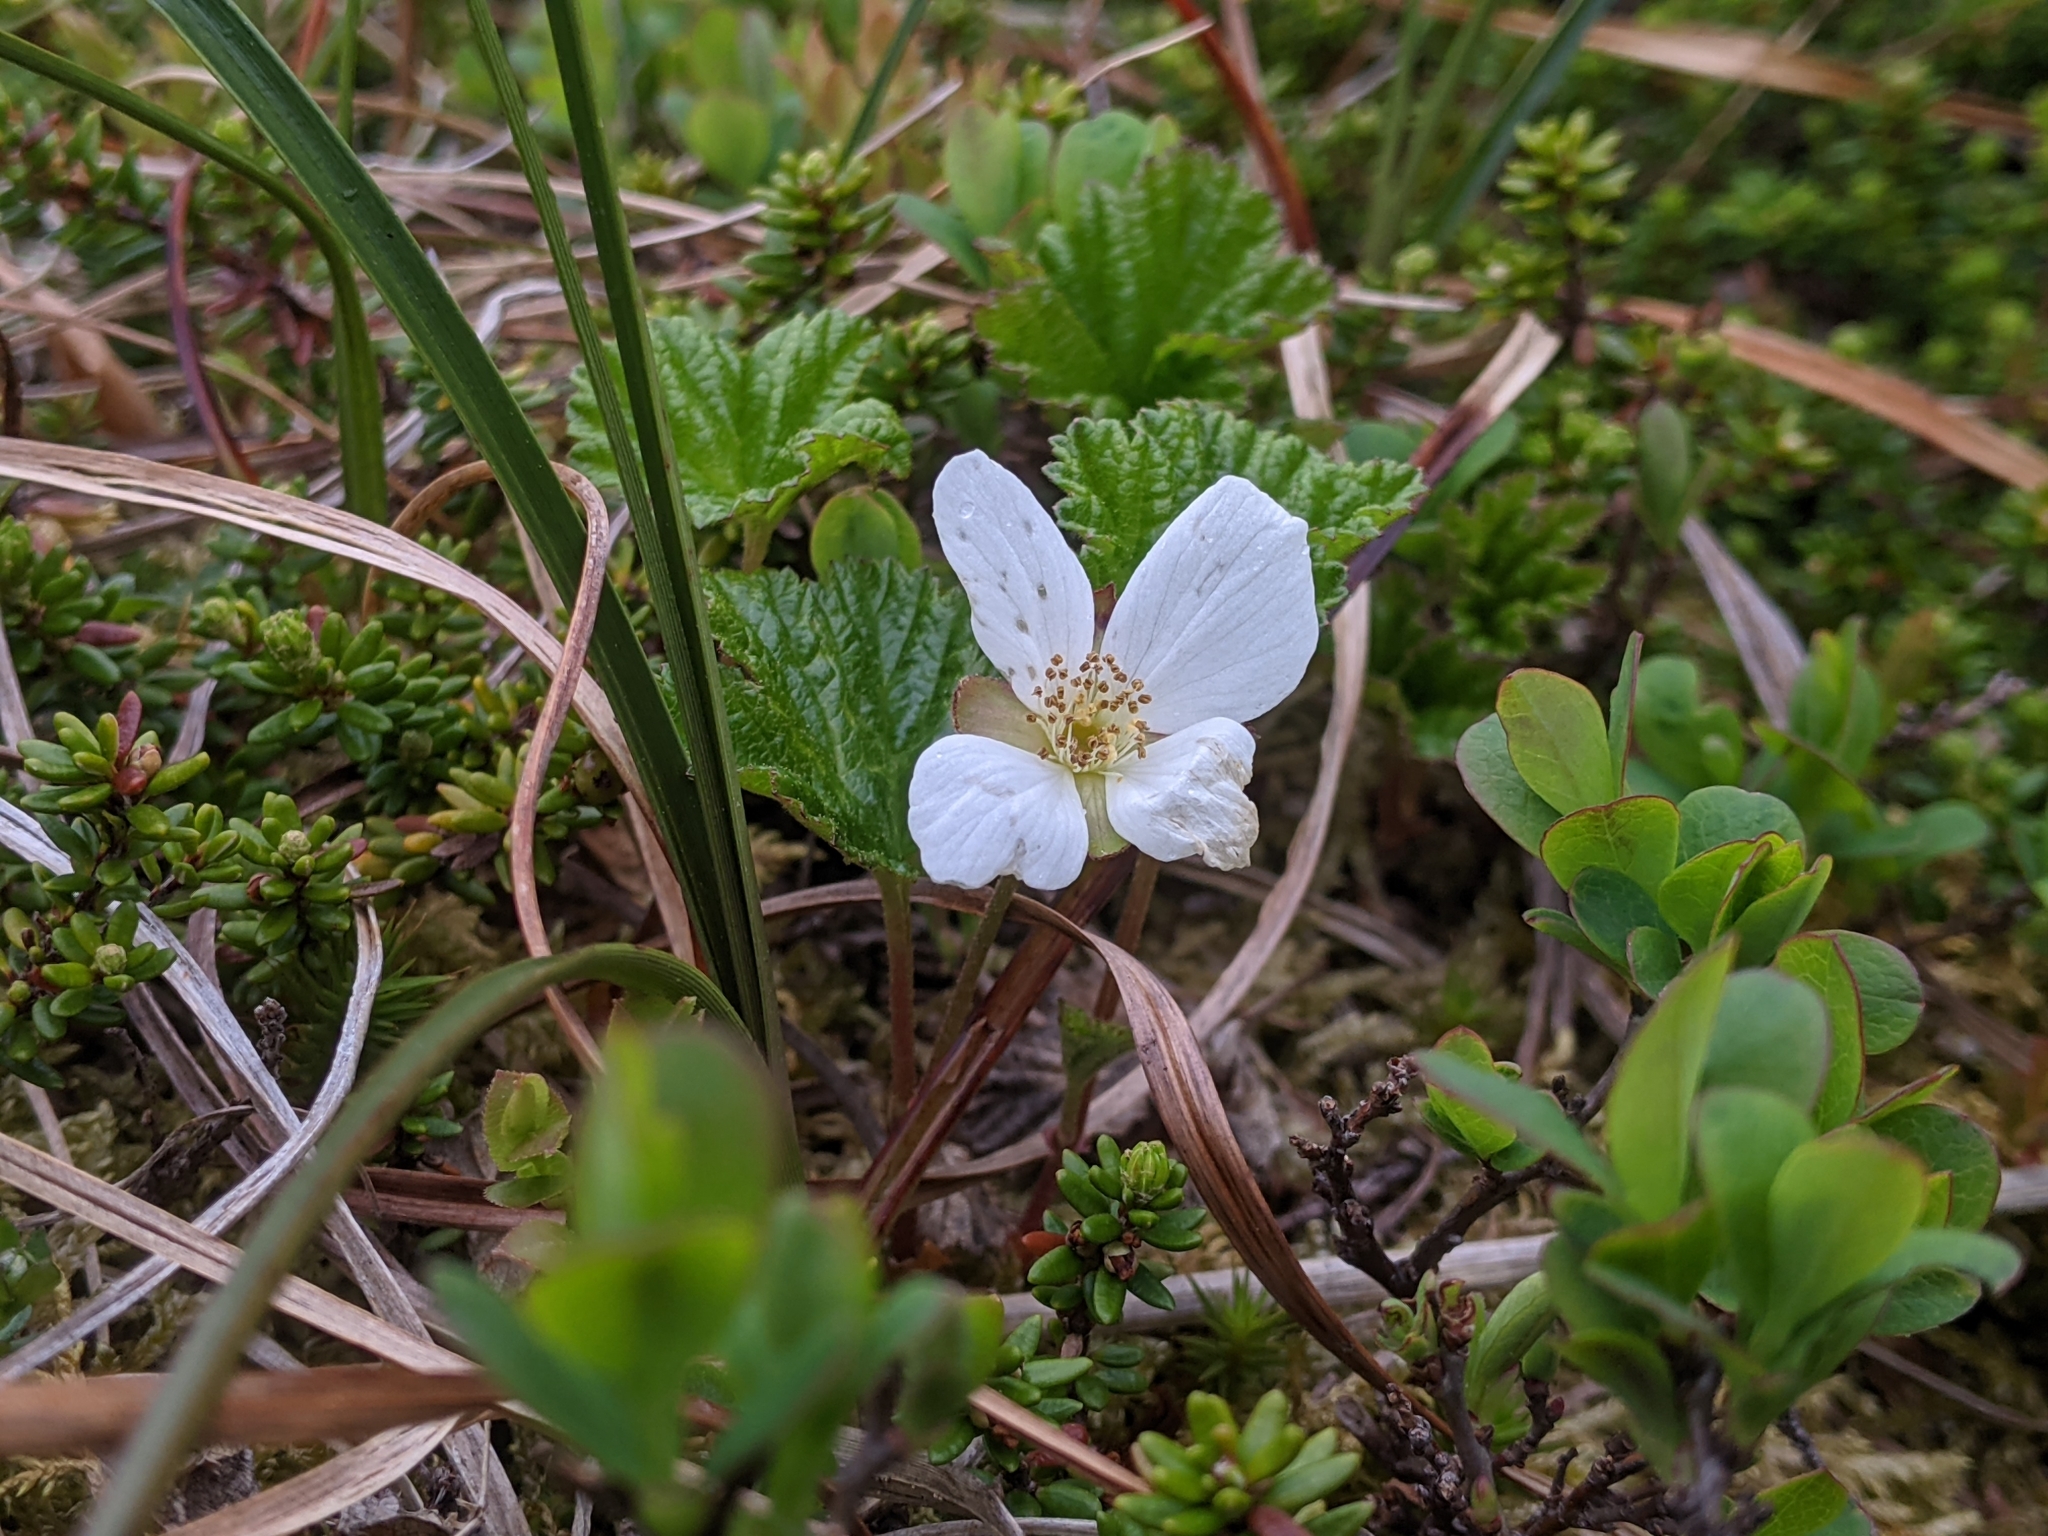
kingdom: Plantae
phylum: Tracheophyta
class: Magnoliopsida
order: Rosales
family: Rosaceae
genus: Rubus
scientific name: Rubus chamaemorus
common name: Cloudberry
